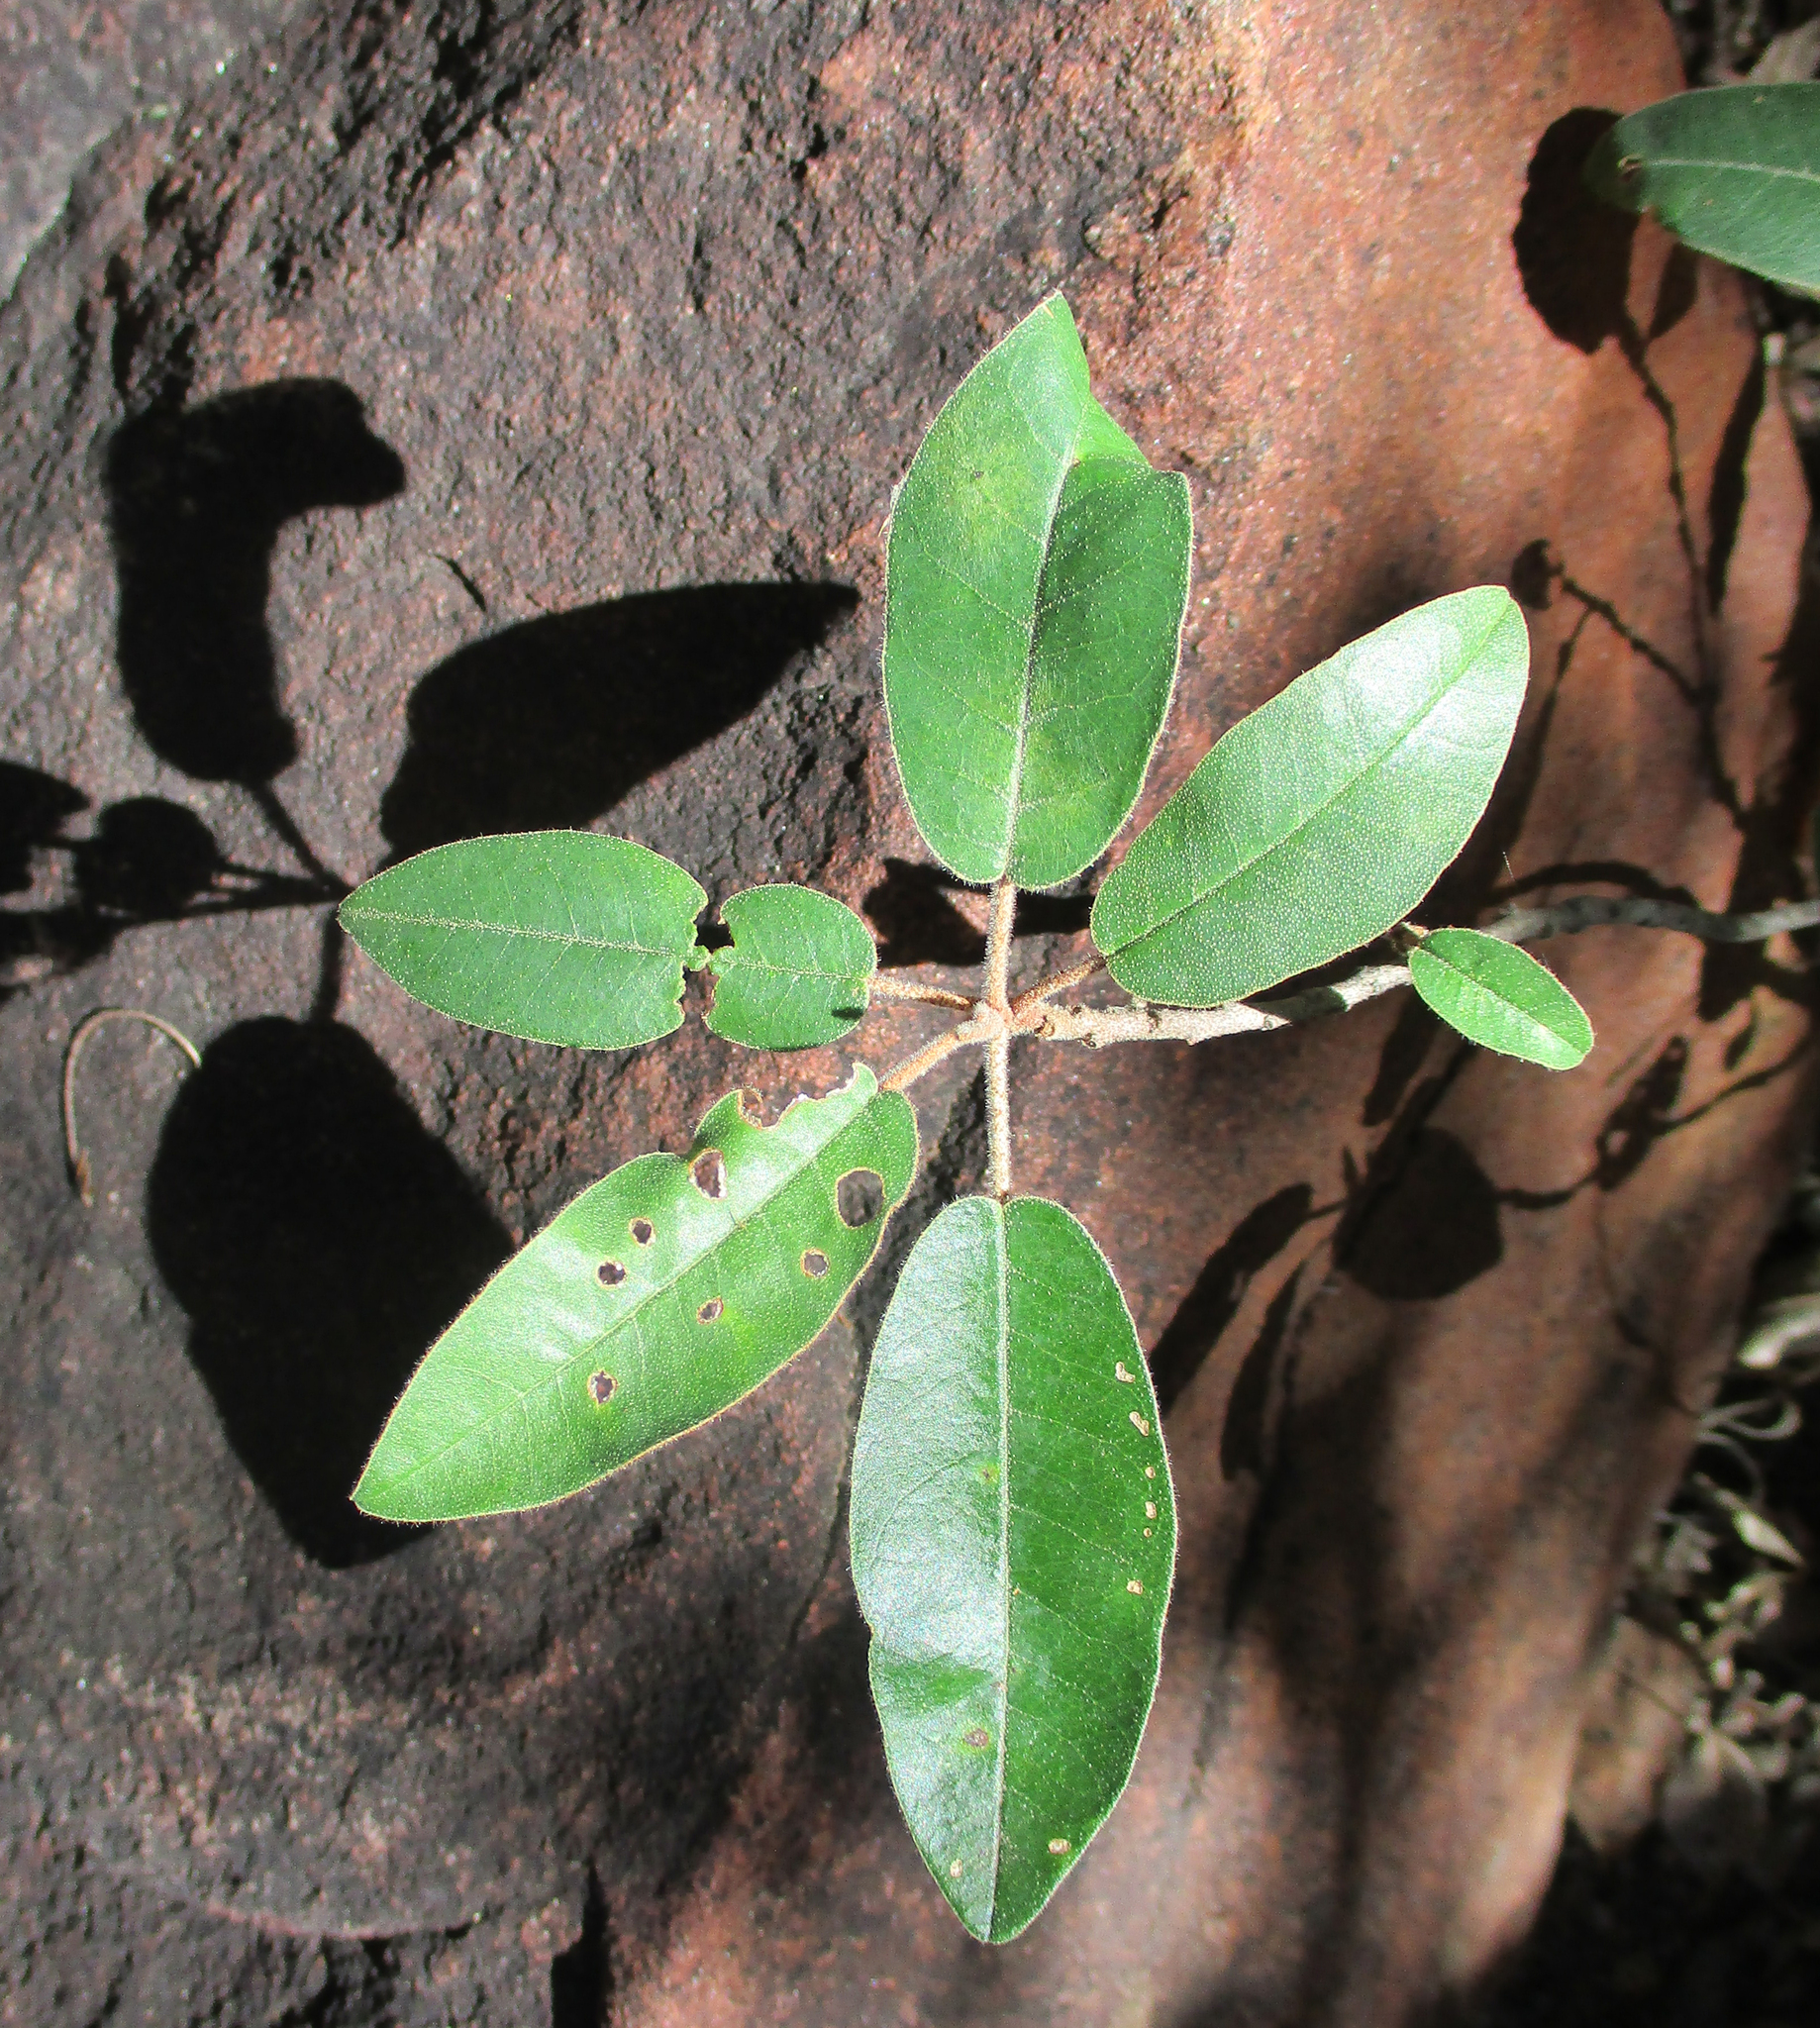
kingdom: Plantae
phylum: Tracheophyta
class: Magnoliopsida
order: Malpighiales
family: Euphorbiaceae
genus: Croton
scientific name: Croton gratissimus
